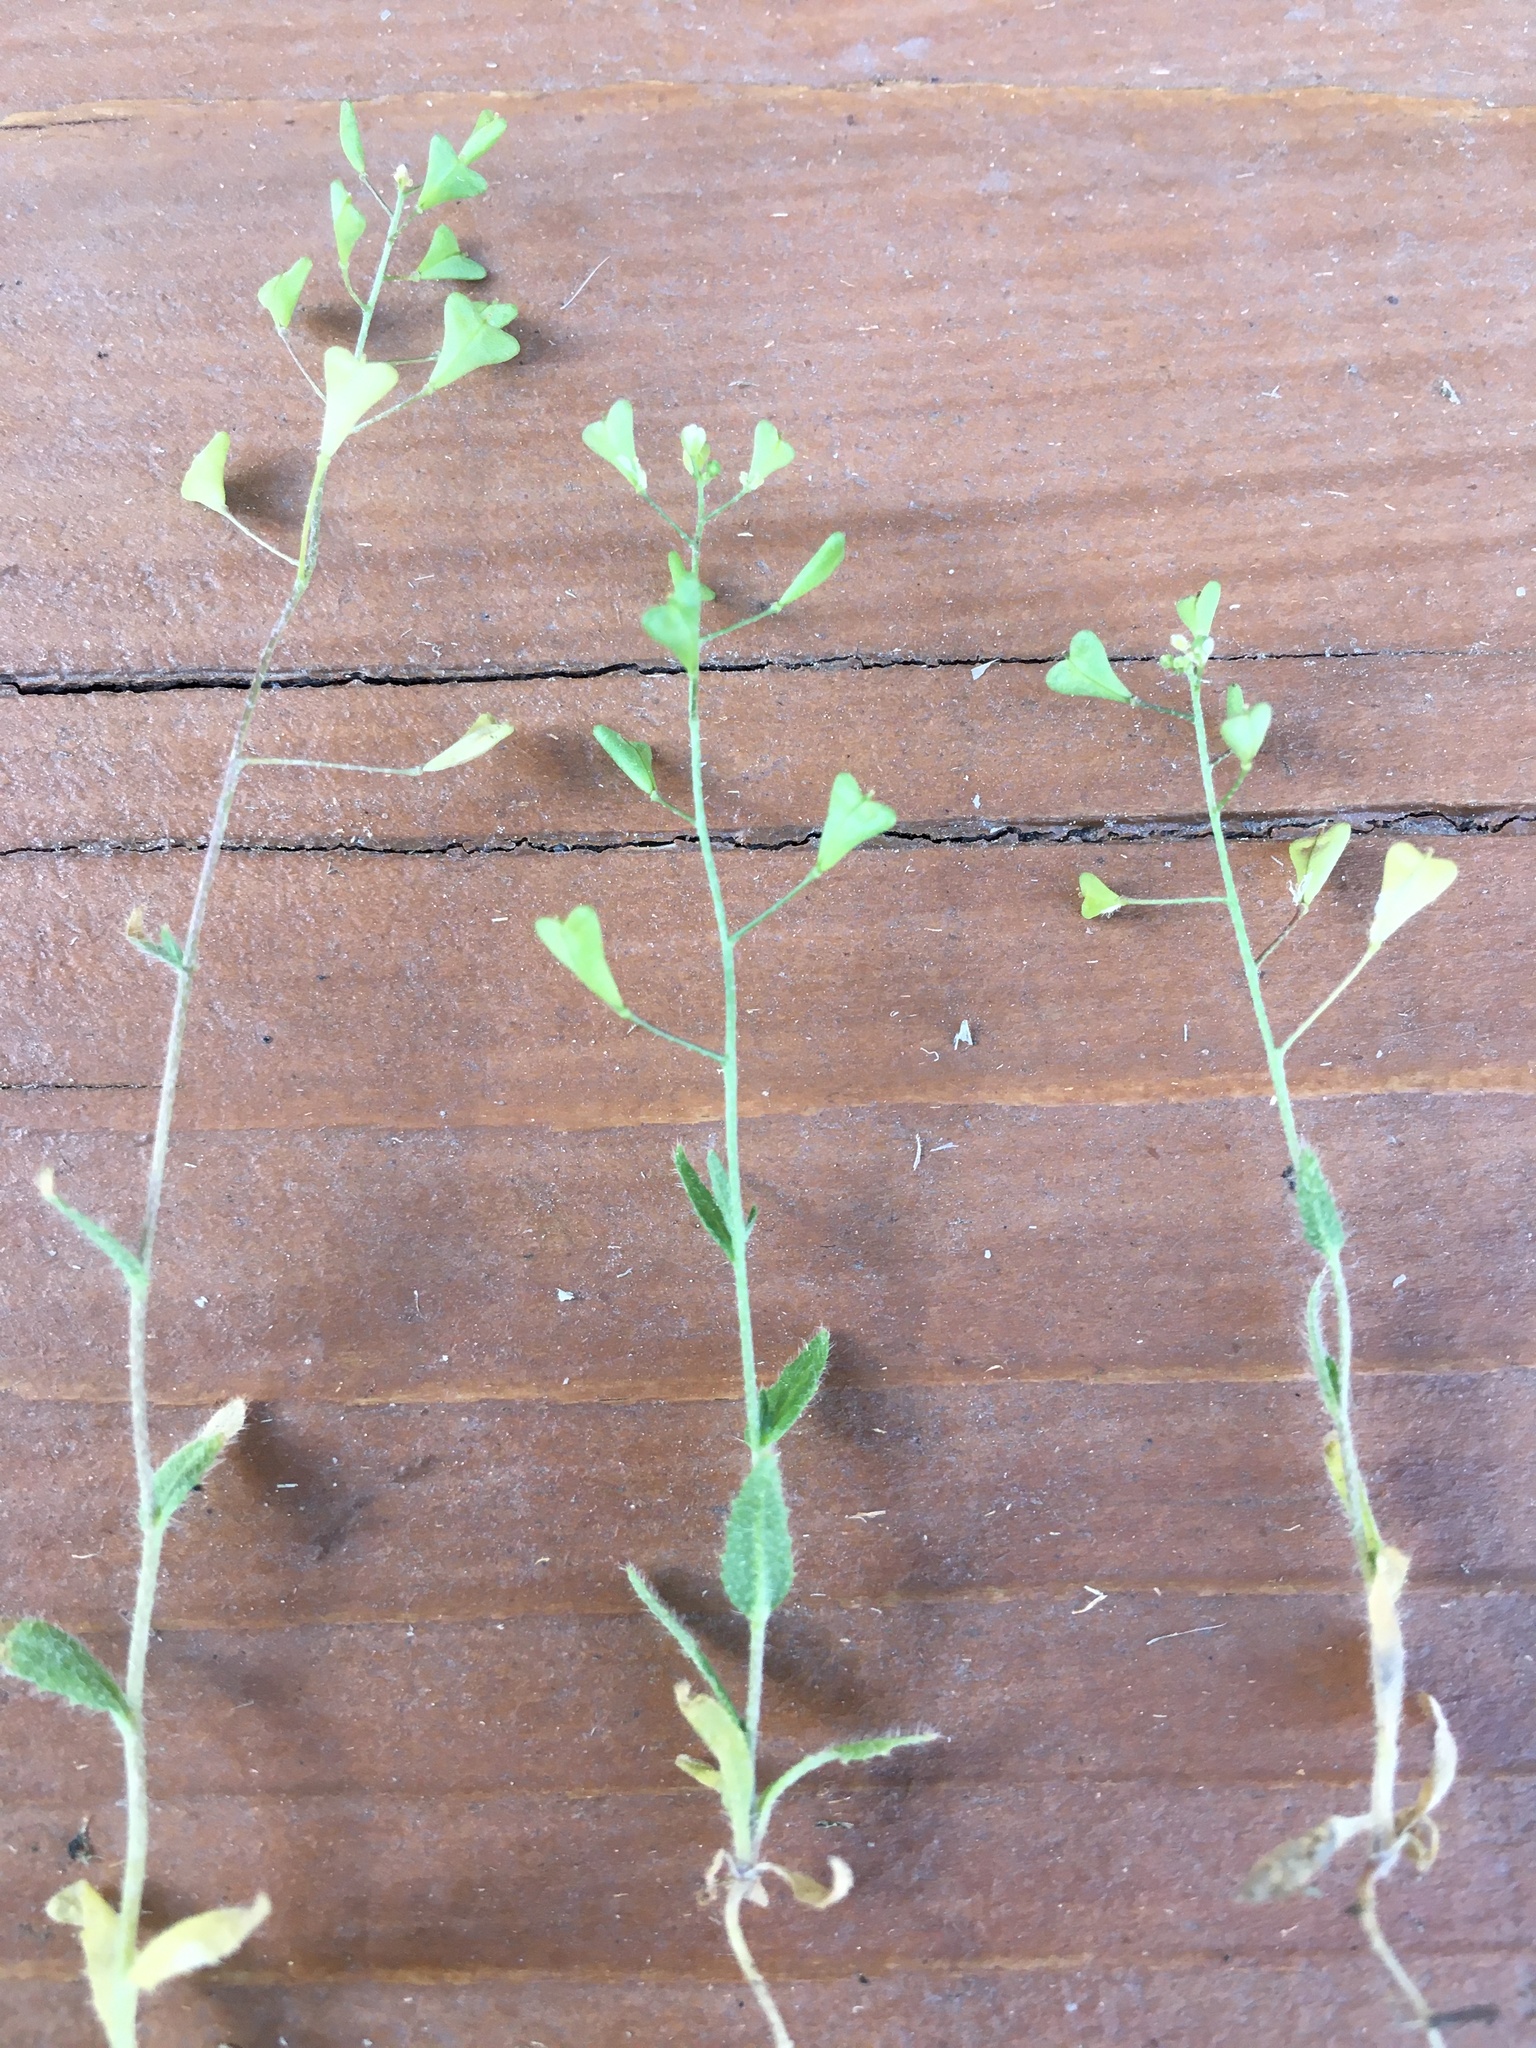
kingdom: Plantae
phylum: Tracheophyta
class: Magnoliopsida
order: Brassicales
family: Brassicaceae
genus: Capsella
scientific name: Capsella bursa-pastoris
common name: Shepherd's purse
